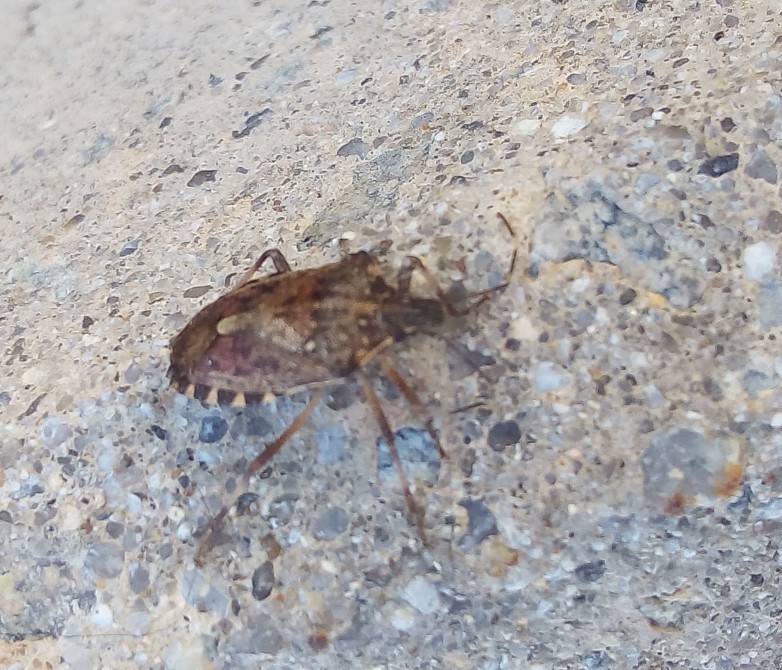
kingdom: Animalia
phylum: Arthropoda
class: Insecta
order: Hemiptera
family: Pentatomidae
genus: Halyomorpha
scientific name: Halyomorpha halys
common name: Brown marmorated stink bug
